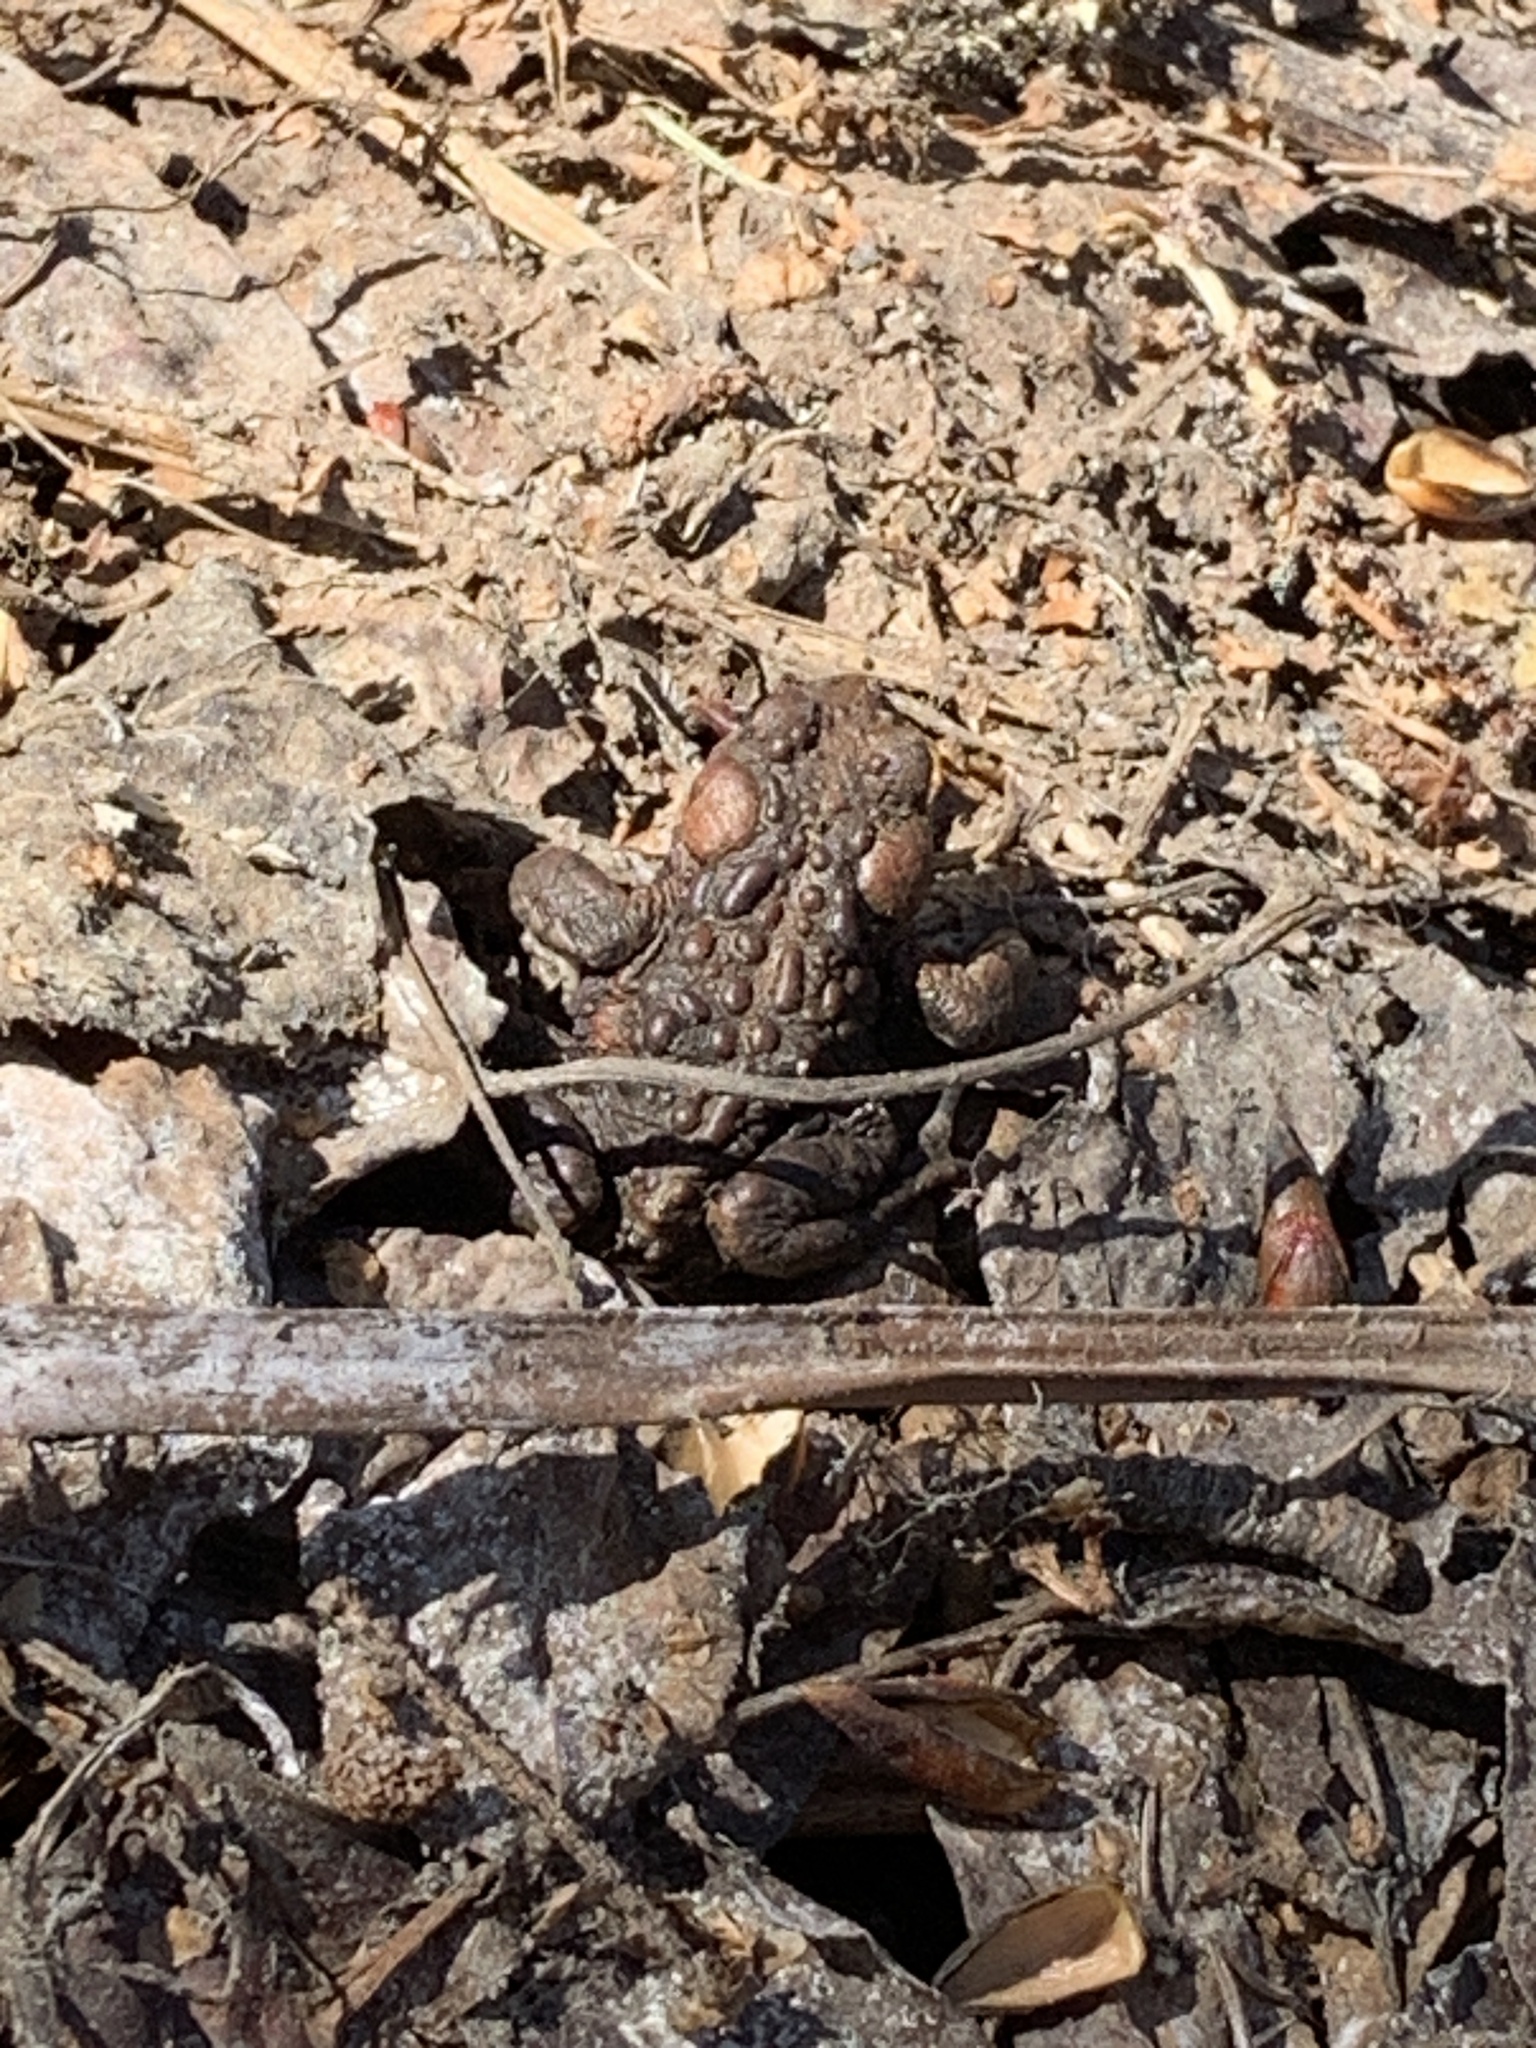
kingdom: Animalia
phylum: Chordata
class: Amphibia
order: Anura
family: Bufonidae
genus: Anaxyrus
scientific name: Anaxyrus boreas
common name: Western toad
